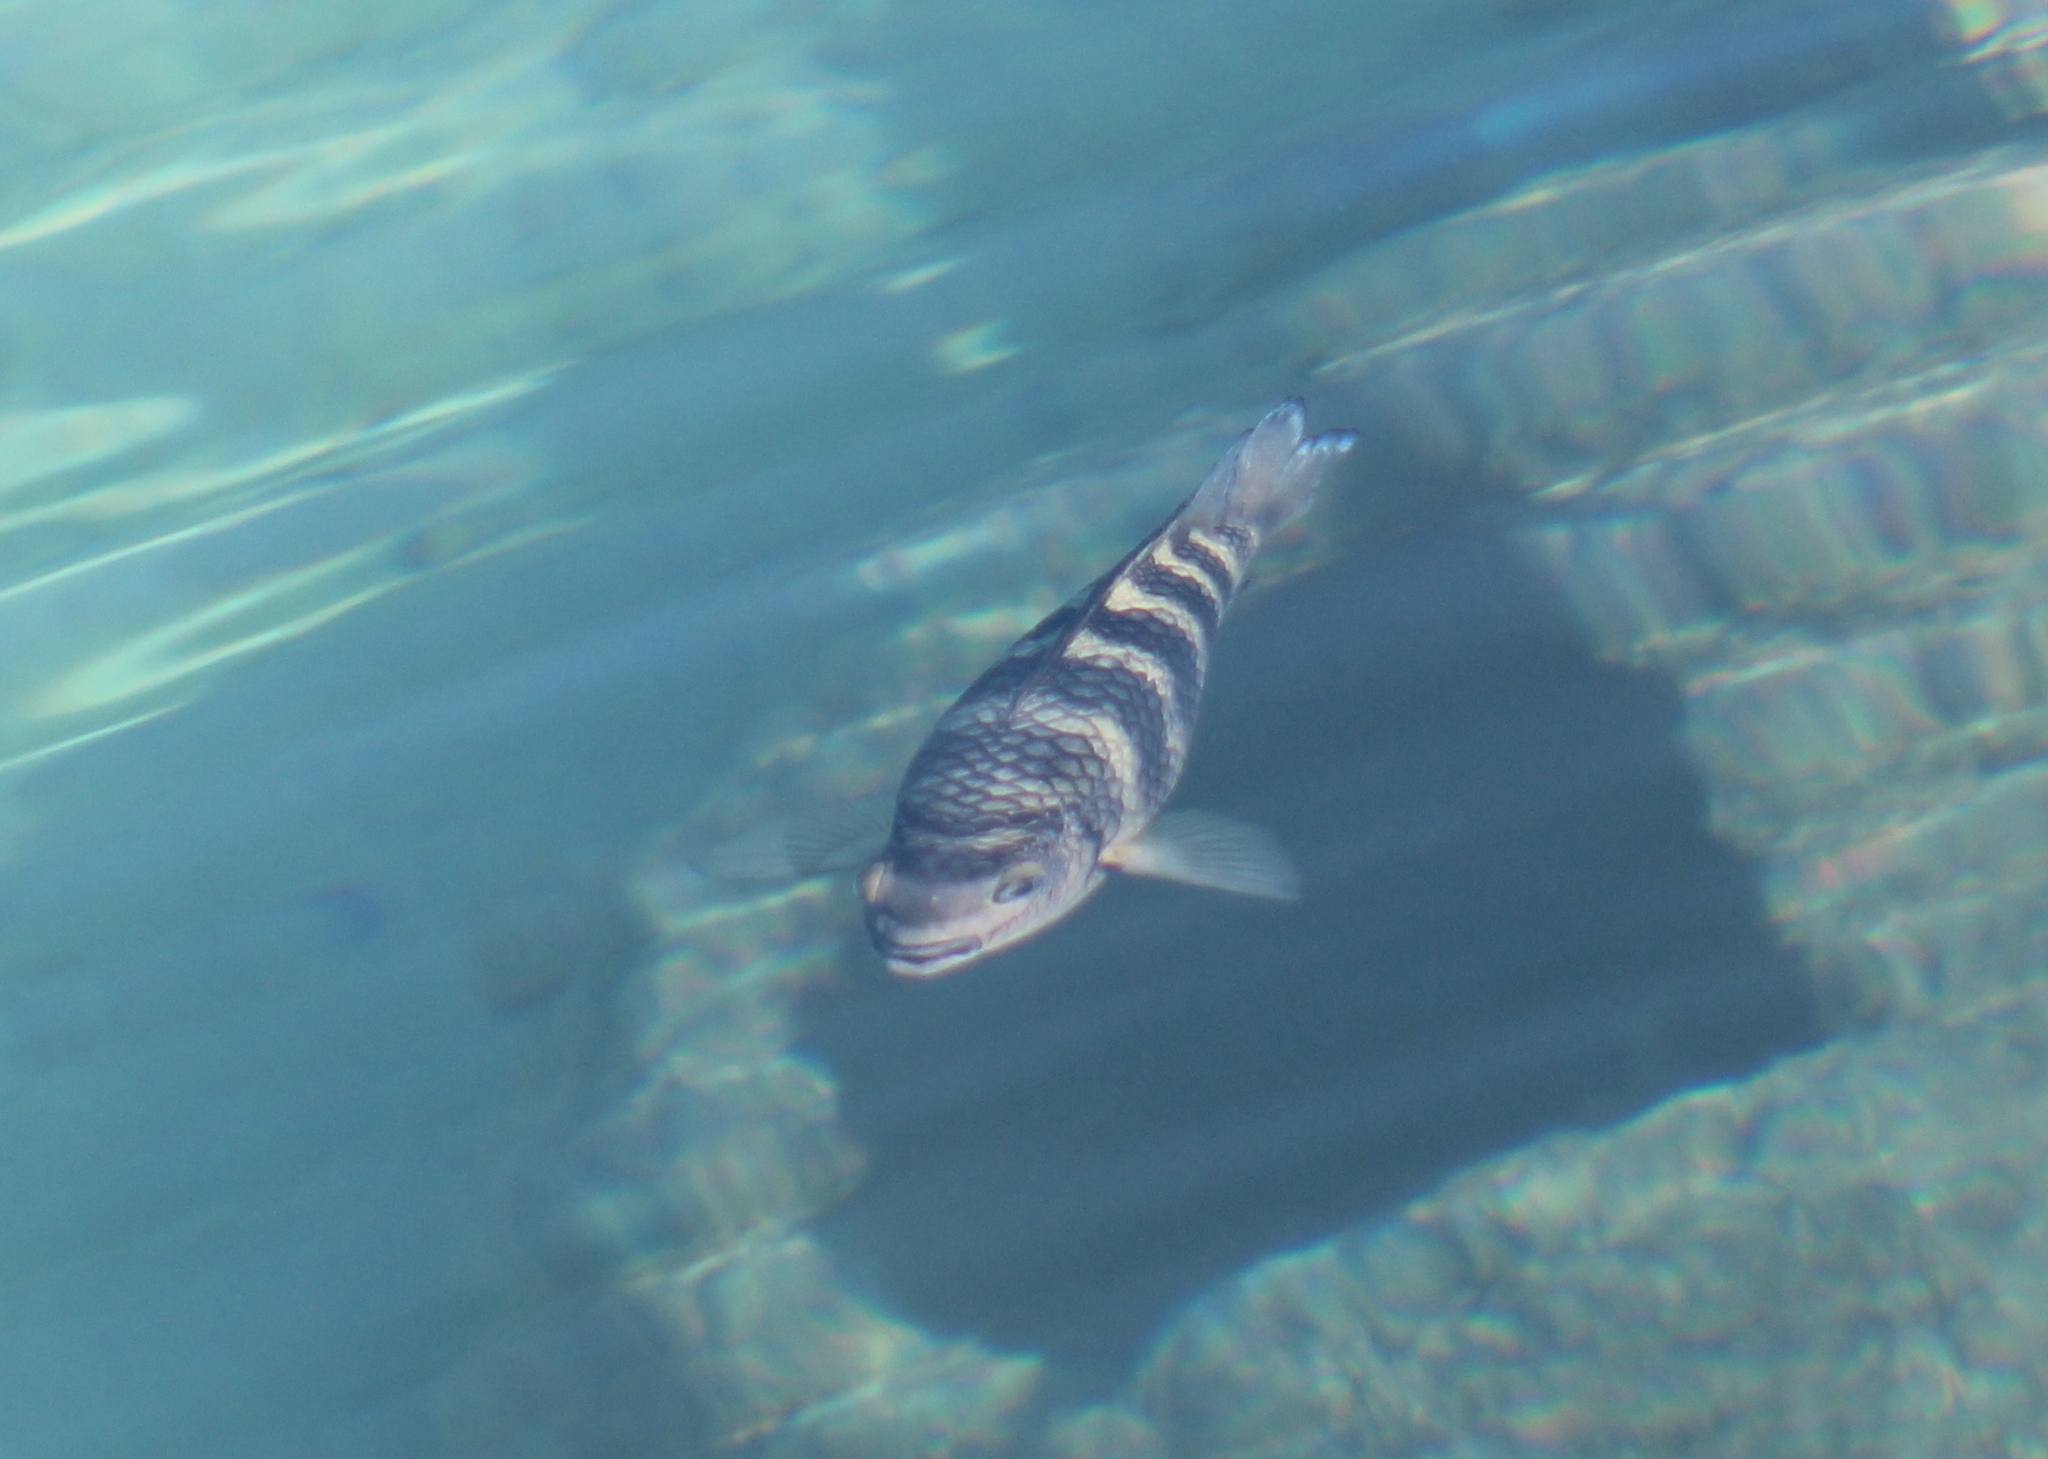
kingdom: Animalia
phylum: Chordata
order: Perciformes
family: Pomacentridae
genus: Abudefduf
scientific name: Abudefduf septemfasciatus
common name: Banded sergeant
